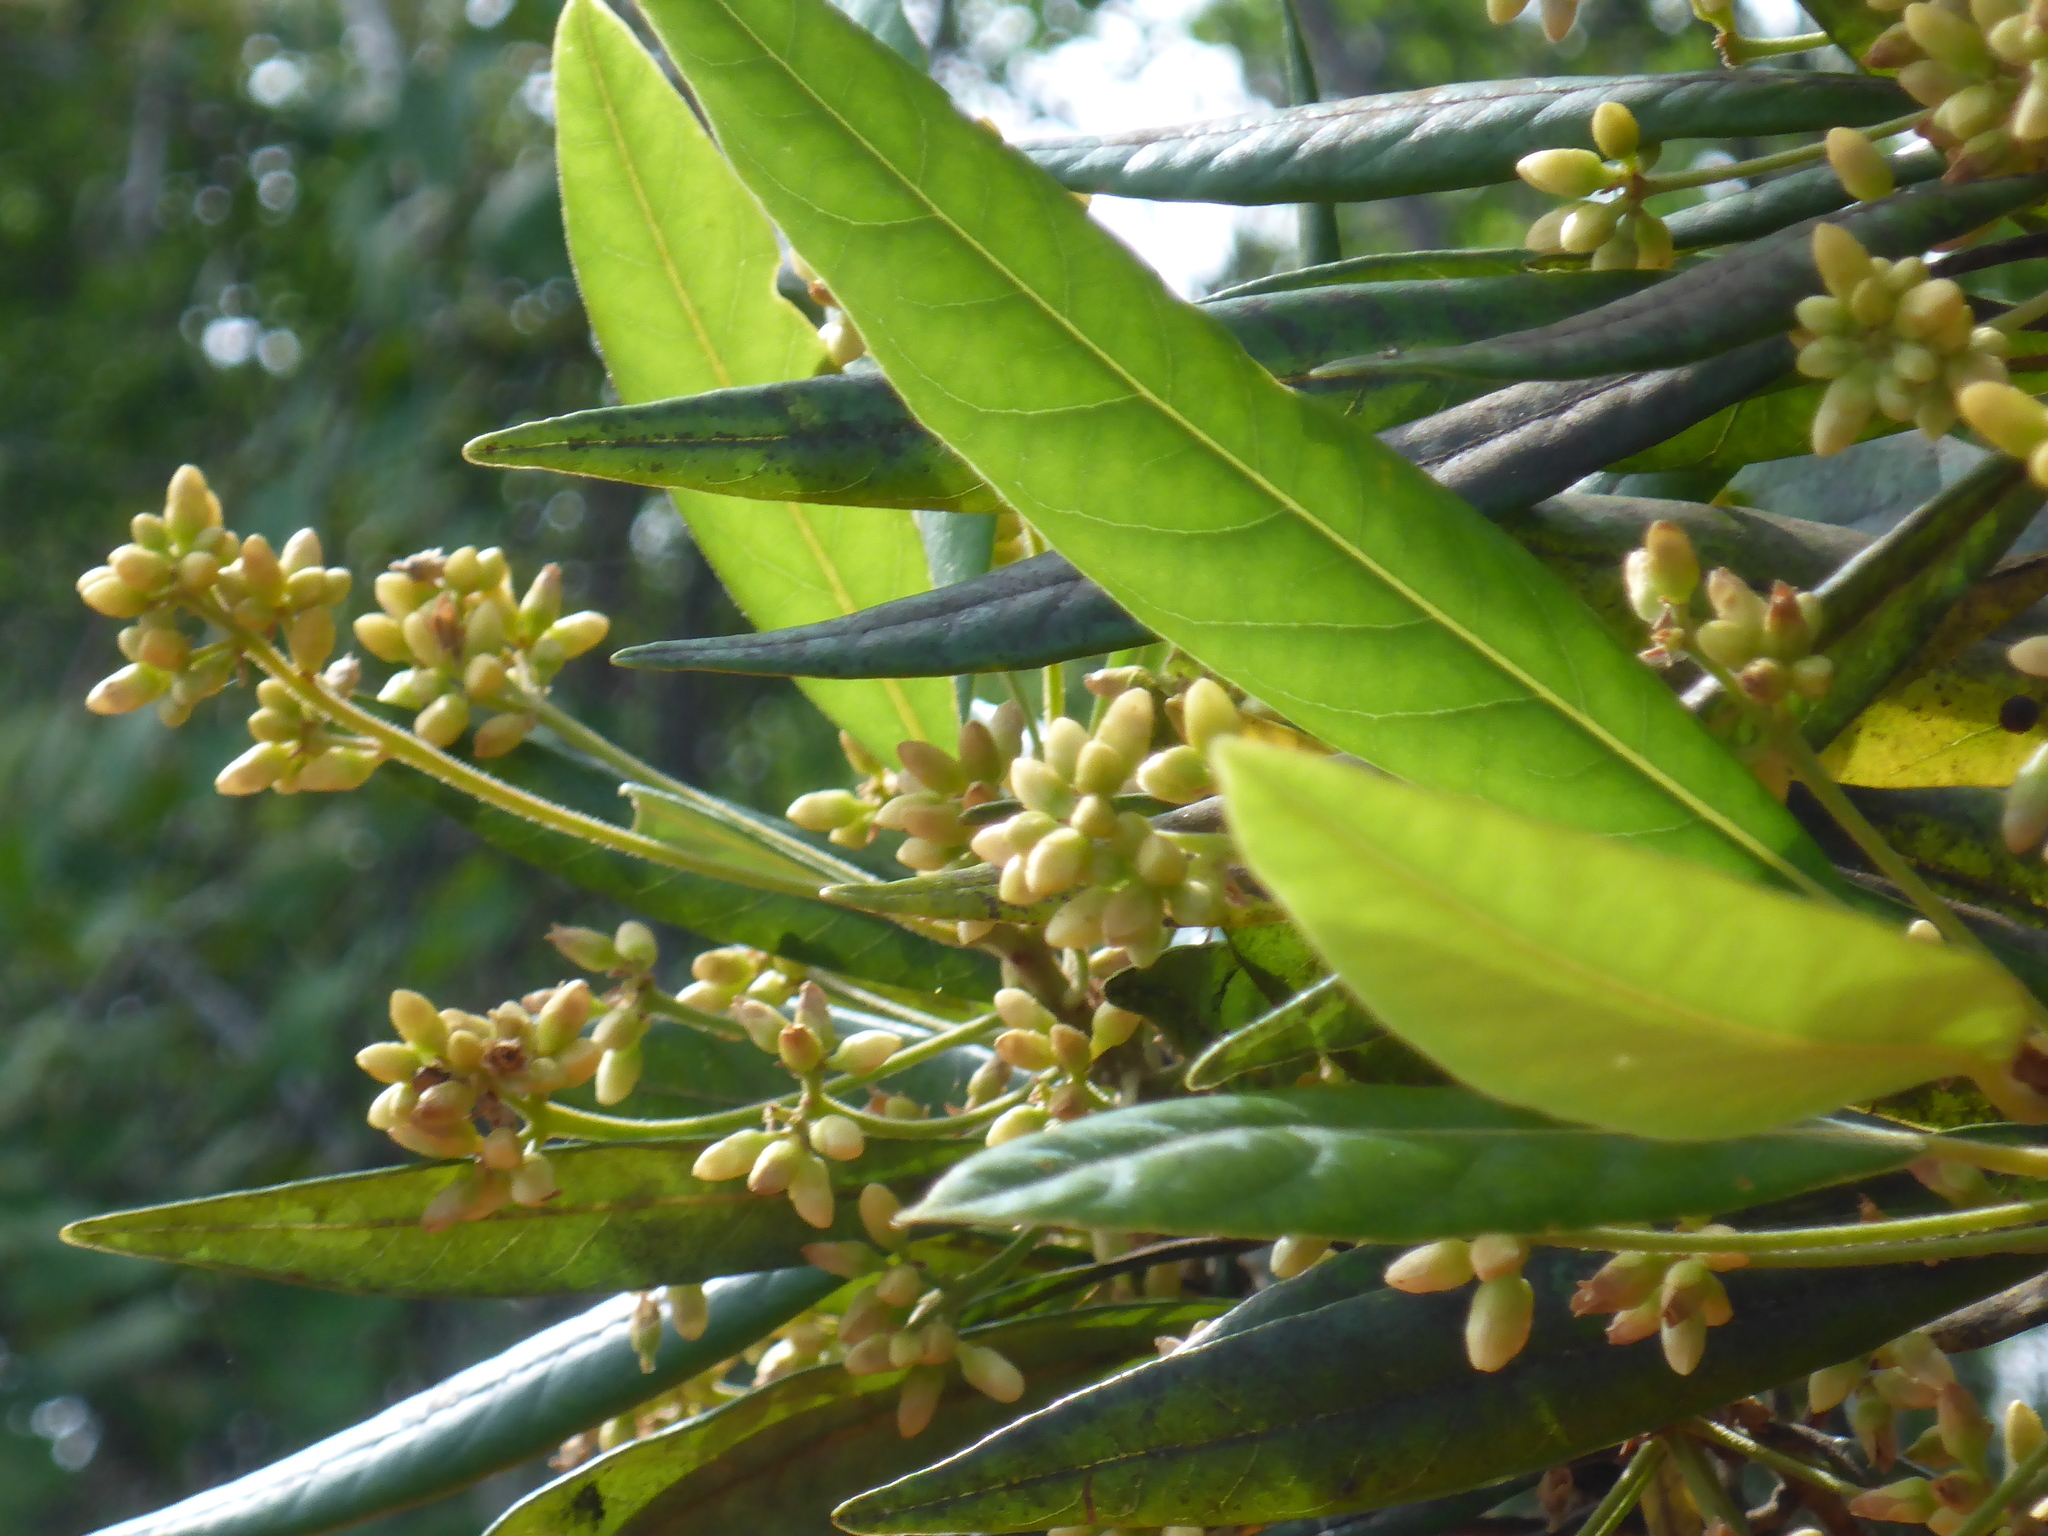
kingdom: Plantae
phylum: Tracheophyta
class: Magnoliopsida
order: Laurales
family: Lauraceae
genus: Persea
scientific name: Persea palustris
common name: Swampbay
